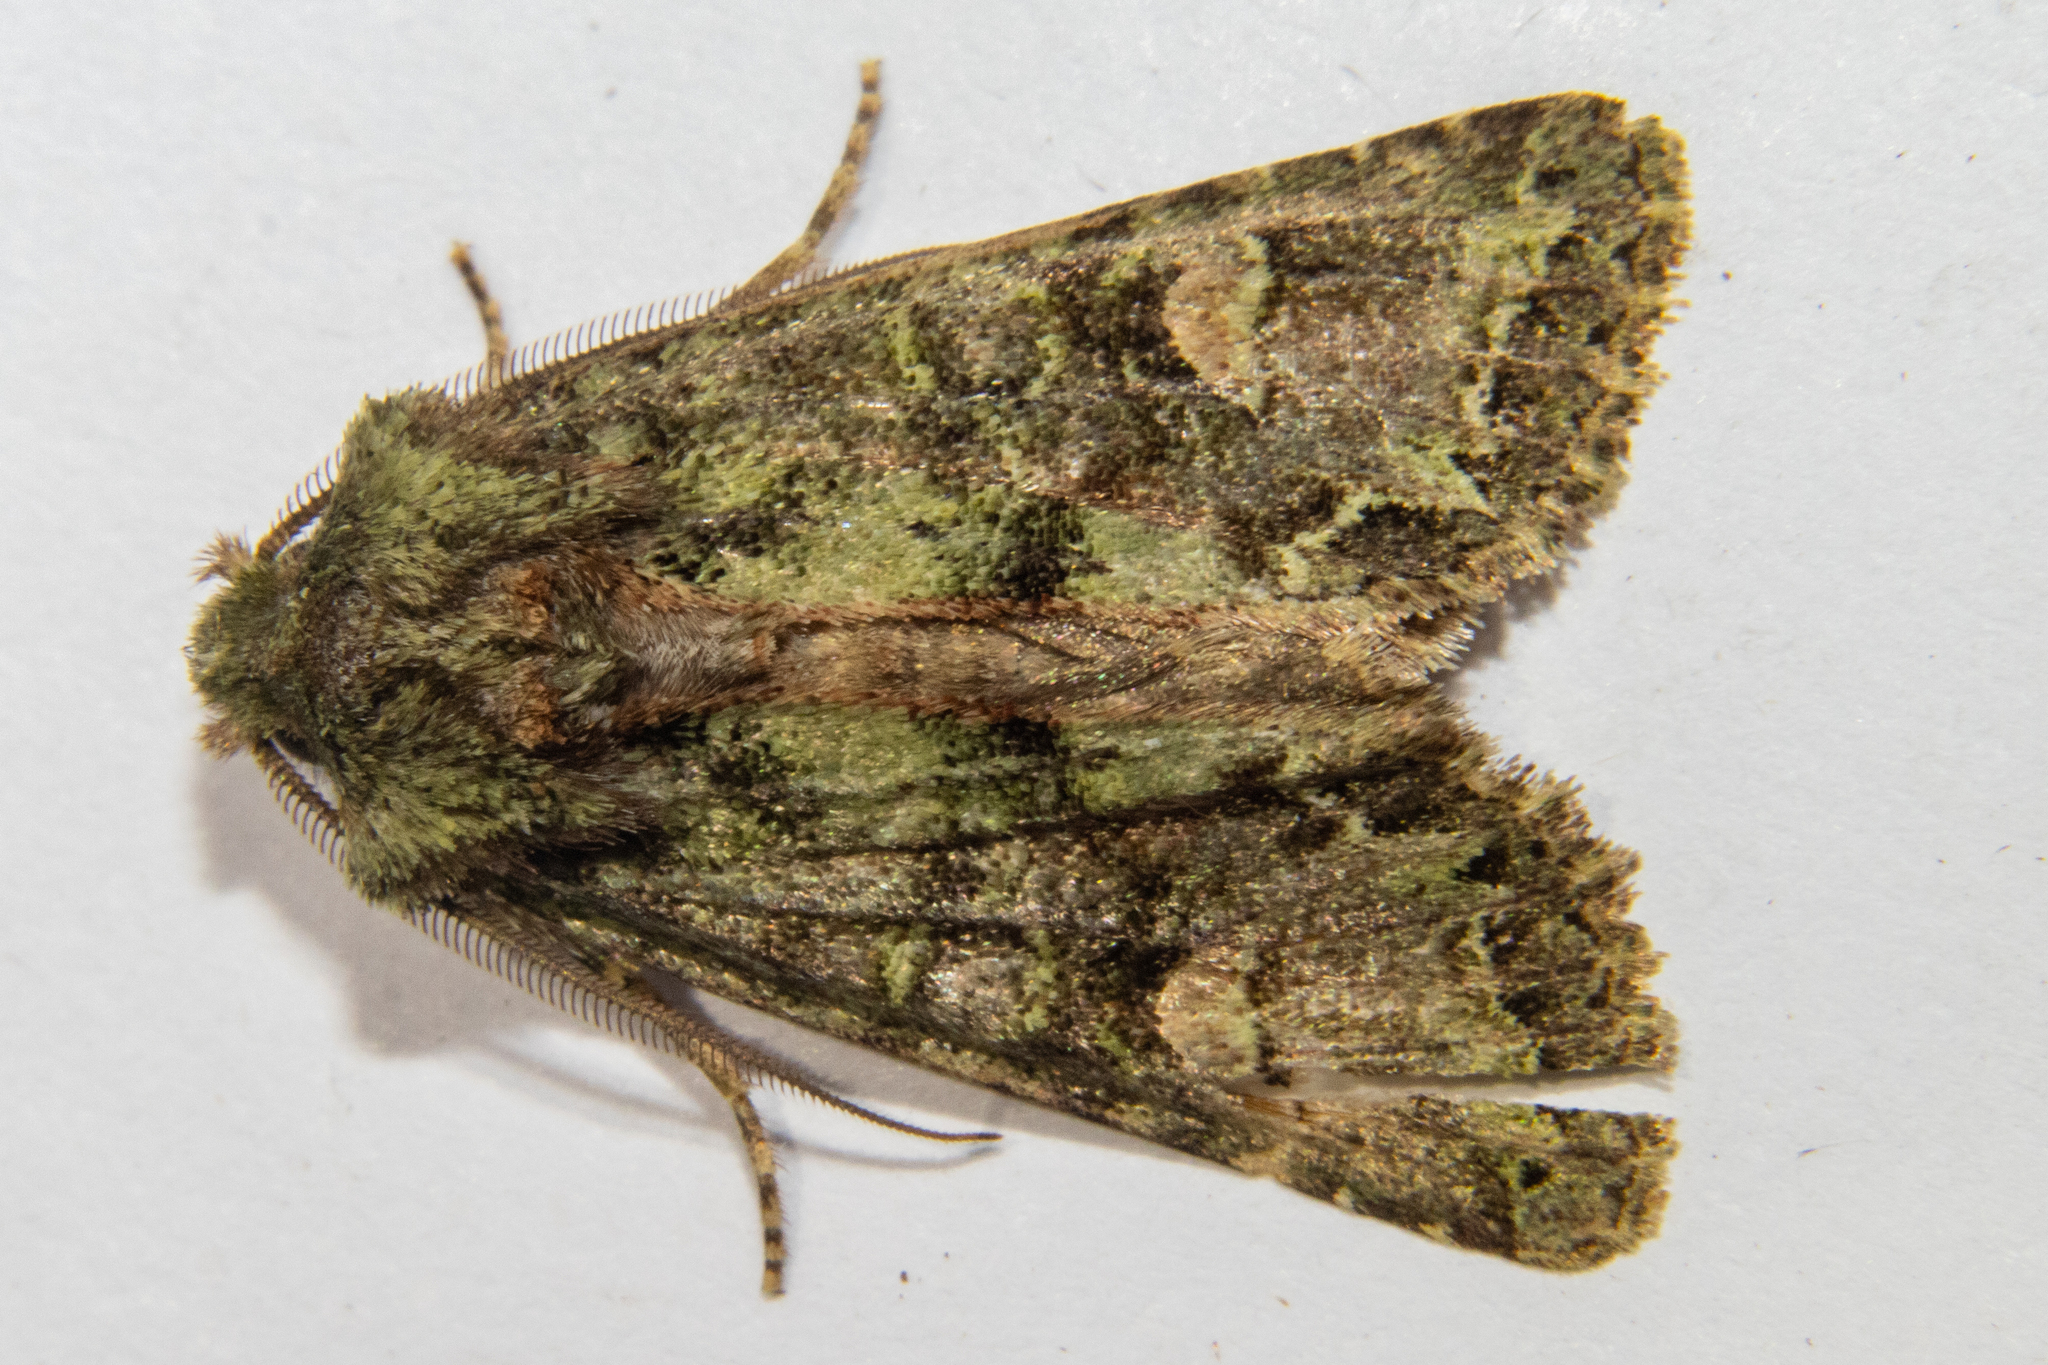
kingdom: Animalia
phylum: Arthropoda
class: Insecta
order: Lepidoptera
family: Noctuidae
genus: Ichneutica
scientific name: Ichneutica
